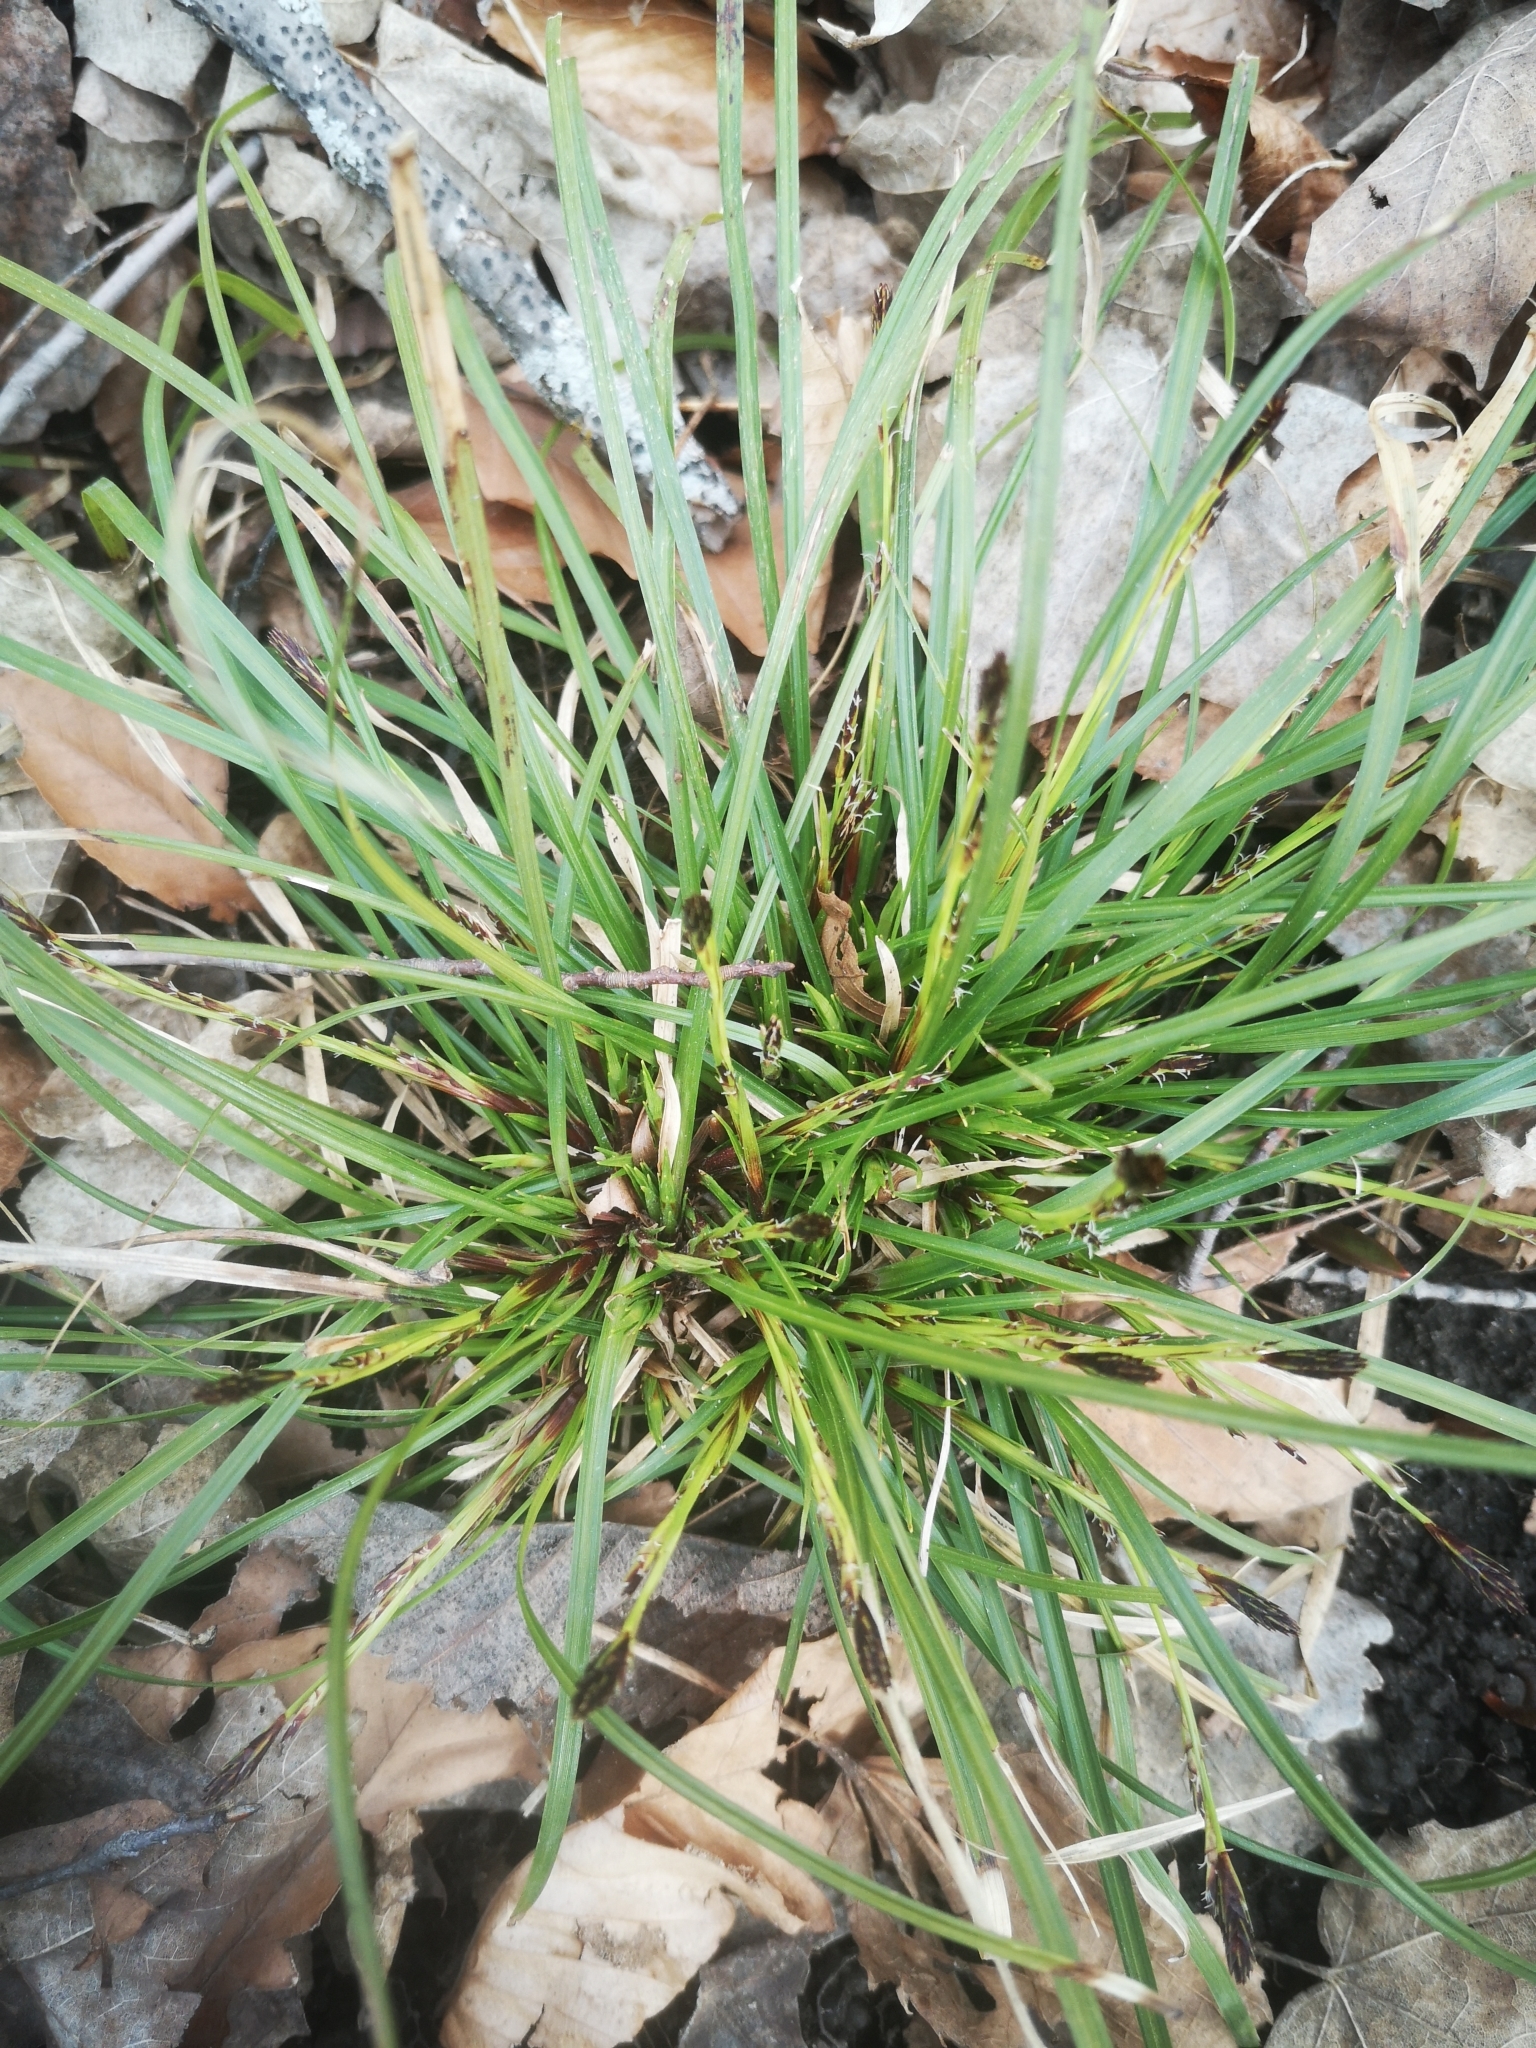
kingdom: Plantae
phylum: Tracheophyta
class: Liliopsida
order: Poales
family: Cyperaceae
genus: Carex
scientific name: Carex pedunculata
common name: Pedunculate sedge
